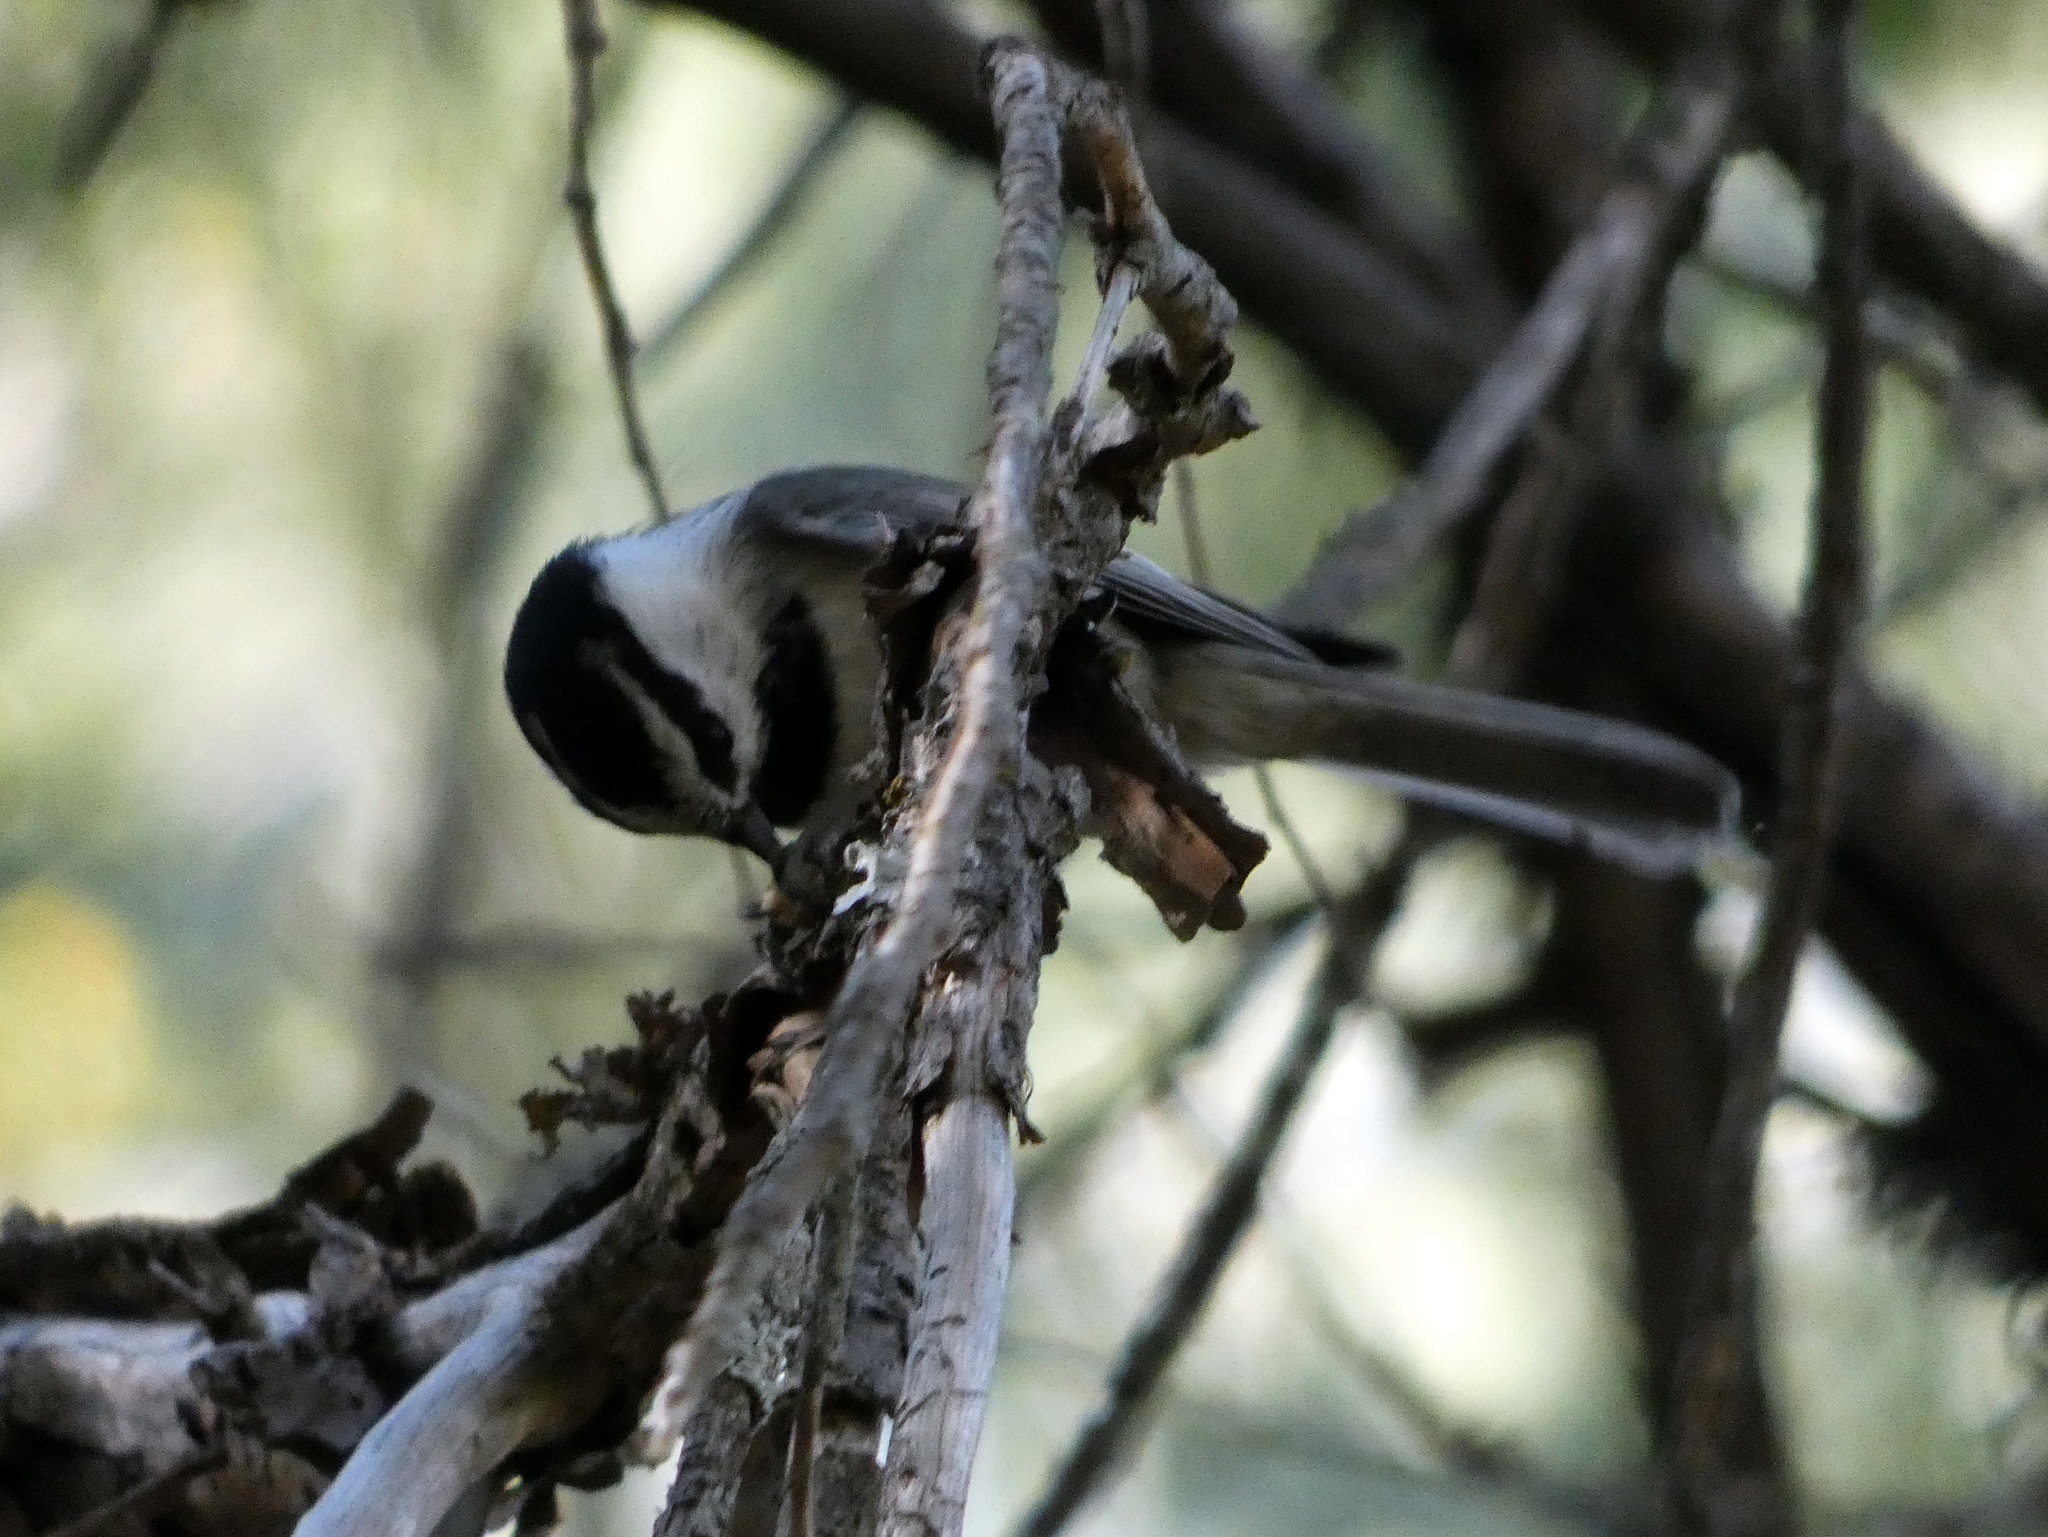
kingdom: Animalia
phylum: Chordata
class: Aves
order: Passeriformes
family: Paridae
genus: Poecile
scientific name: Poecile gambeli
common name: Mountain chickadee
